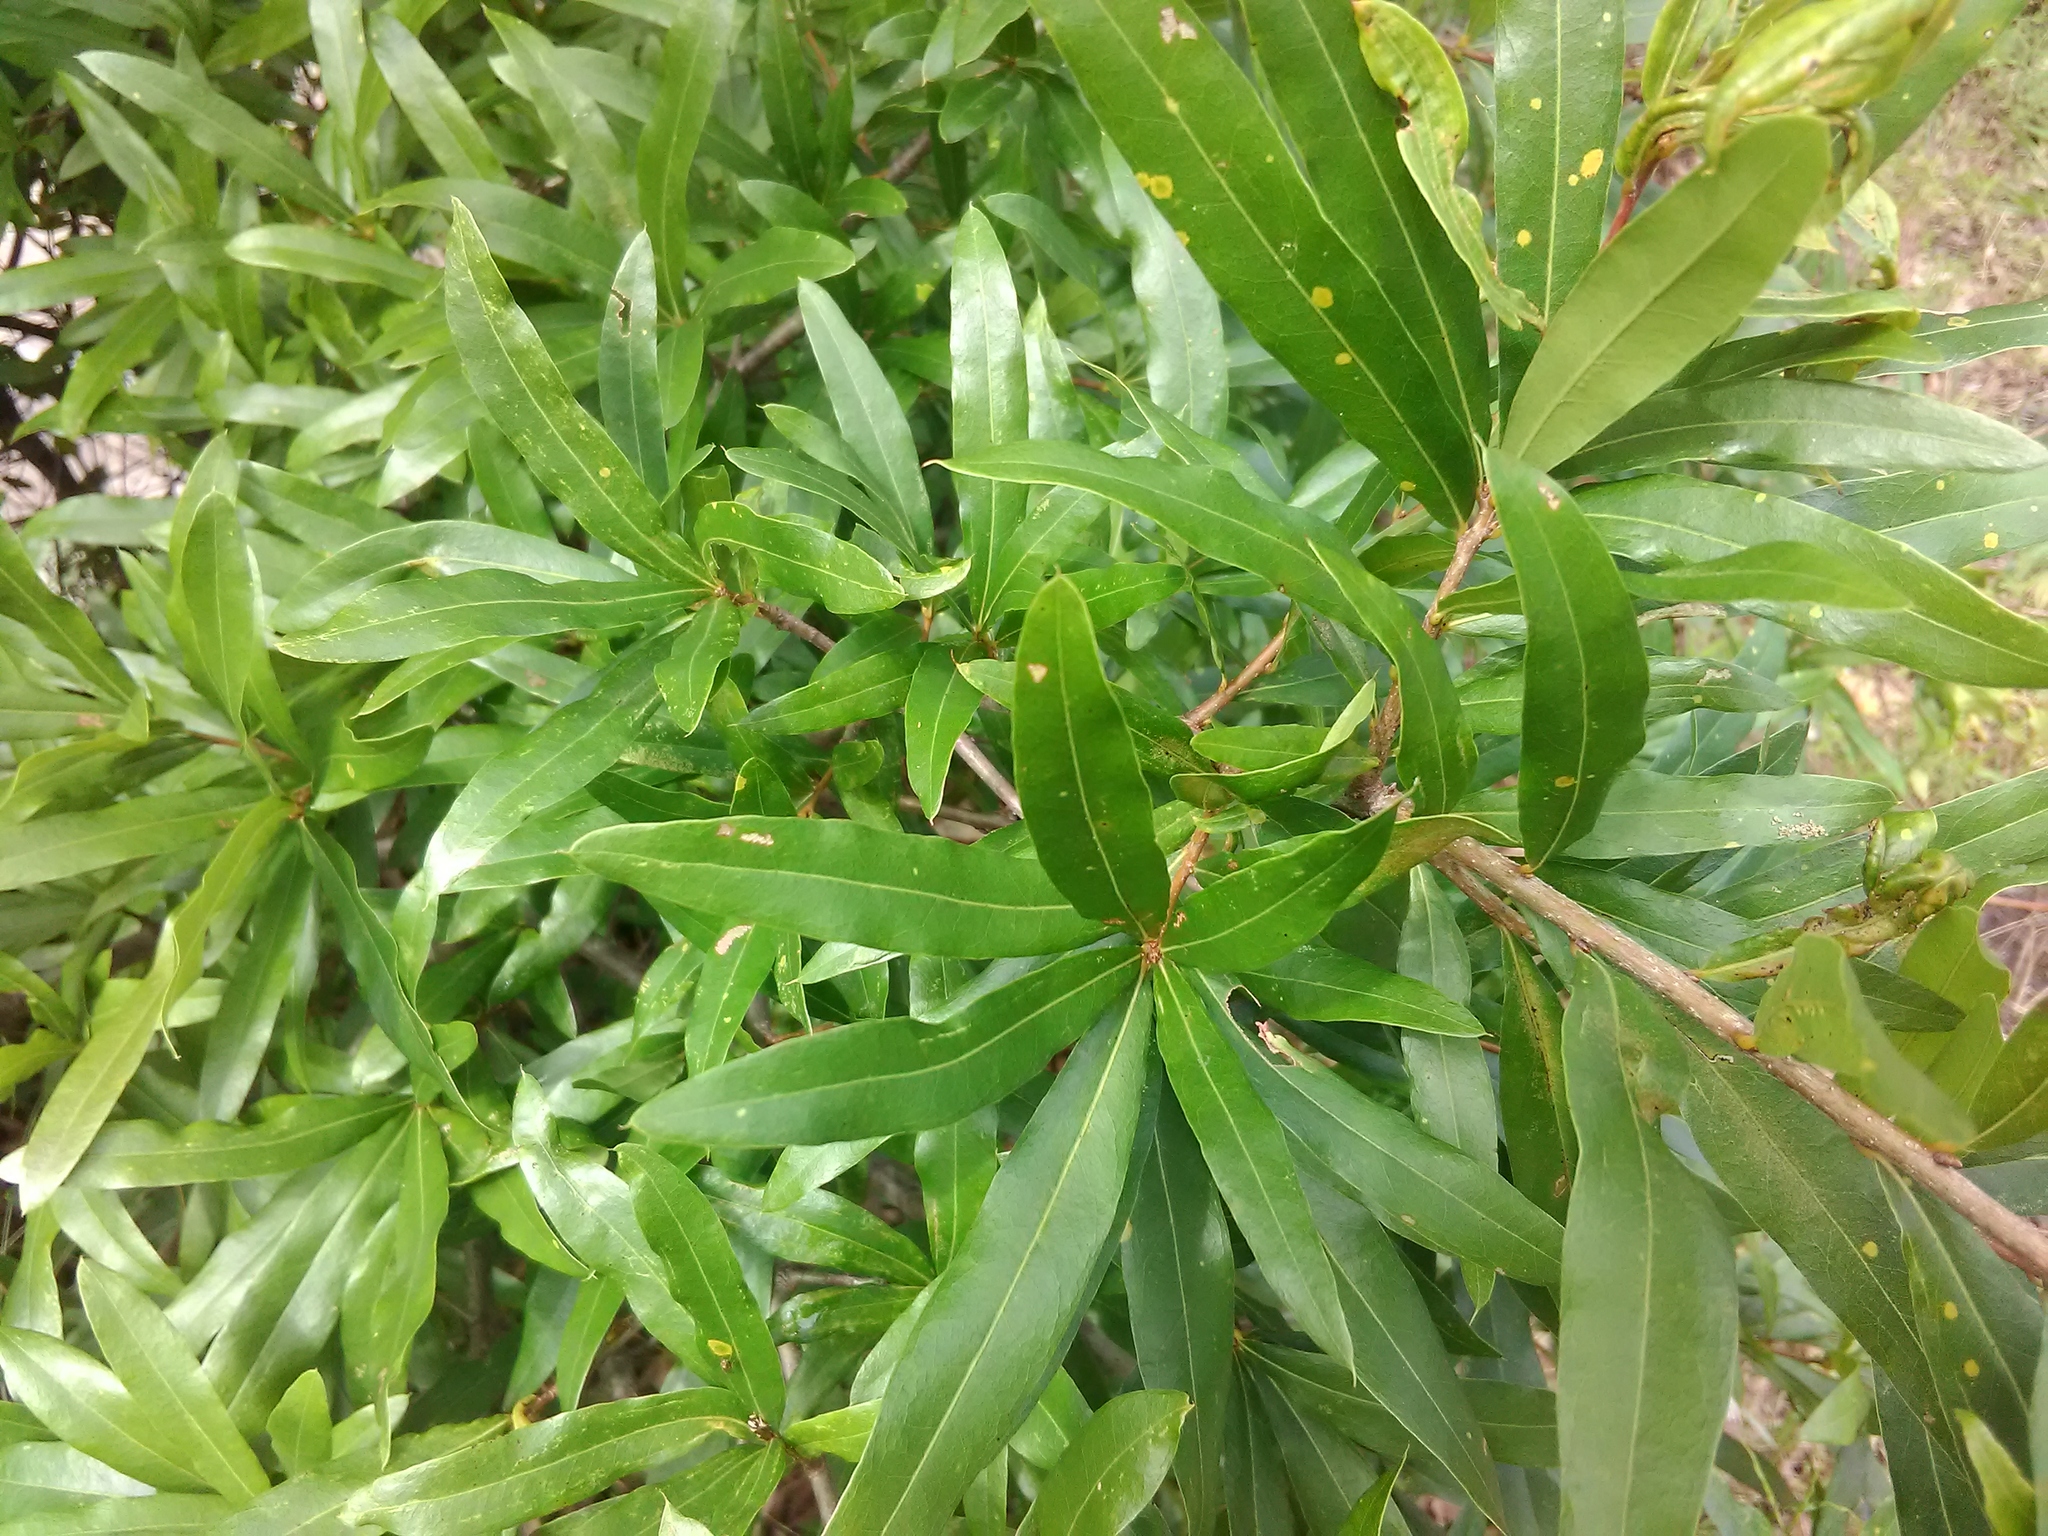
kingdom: Plantae
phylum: Tracheophyta
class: Magnoliopsida
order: Fagales
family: Fagaceae
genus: Quercus
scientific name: Quercus phellos
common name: Willow oak
